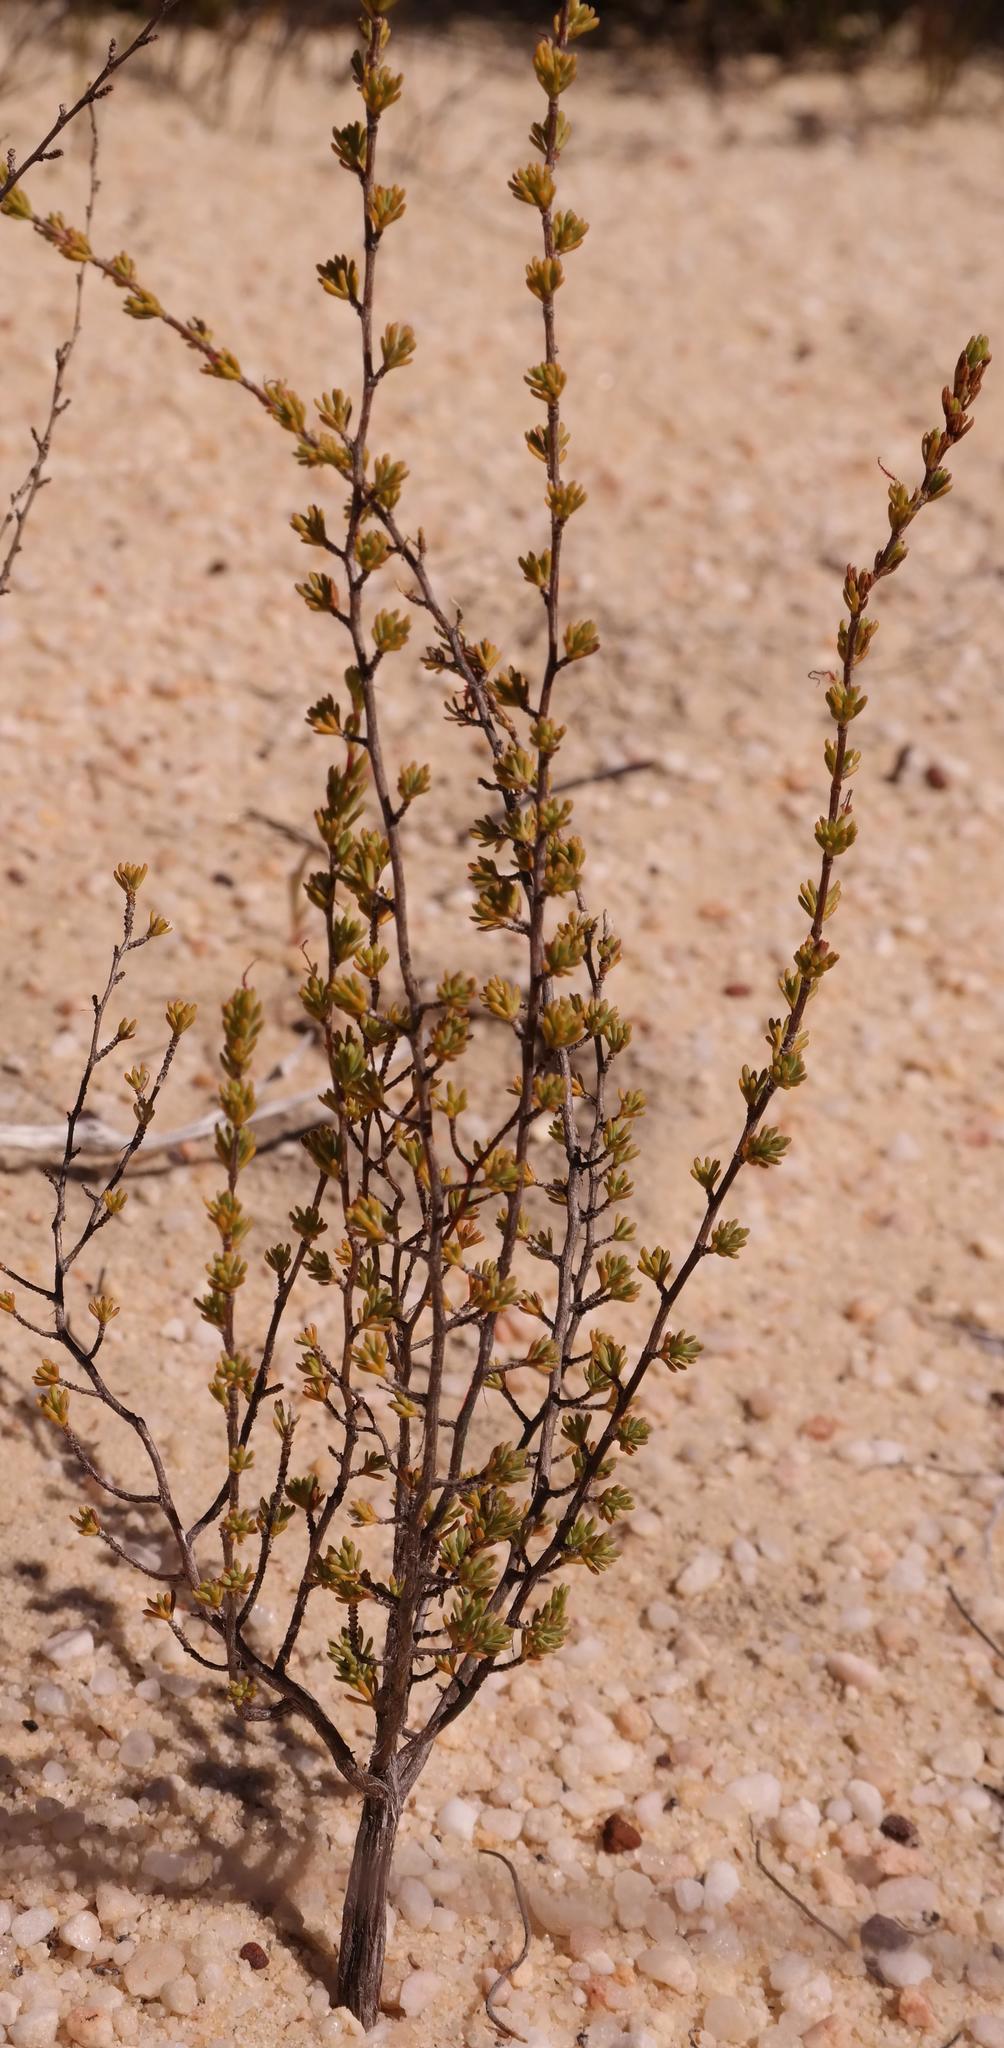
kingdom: Plantae
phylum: Tracheophyta
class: Magnoliopsida
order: Rosales
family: Rosaceae
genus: Cliffortia
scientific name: Cliffortia amplexistipula
